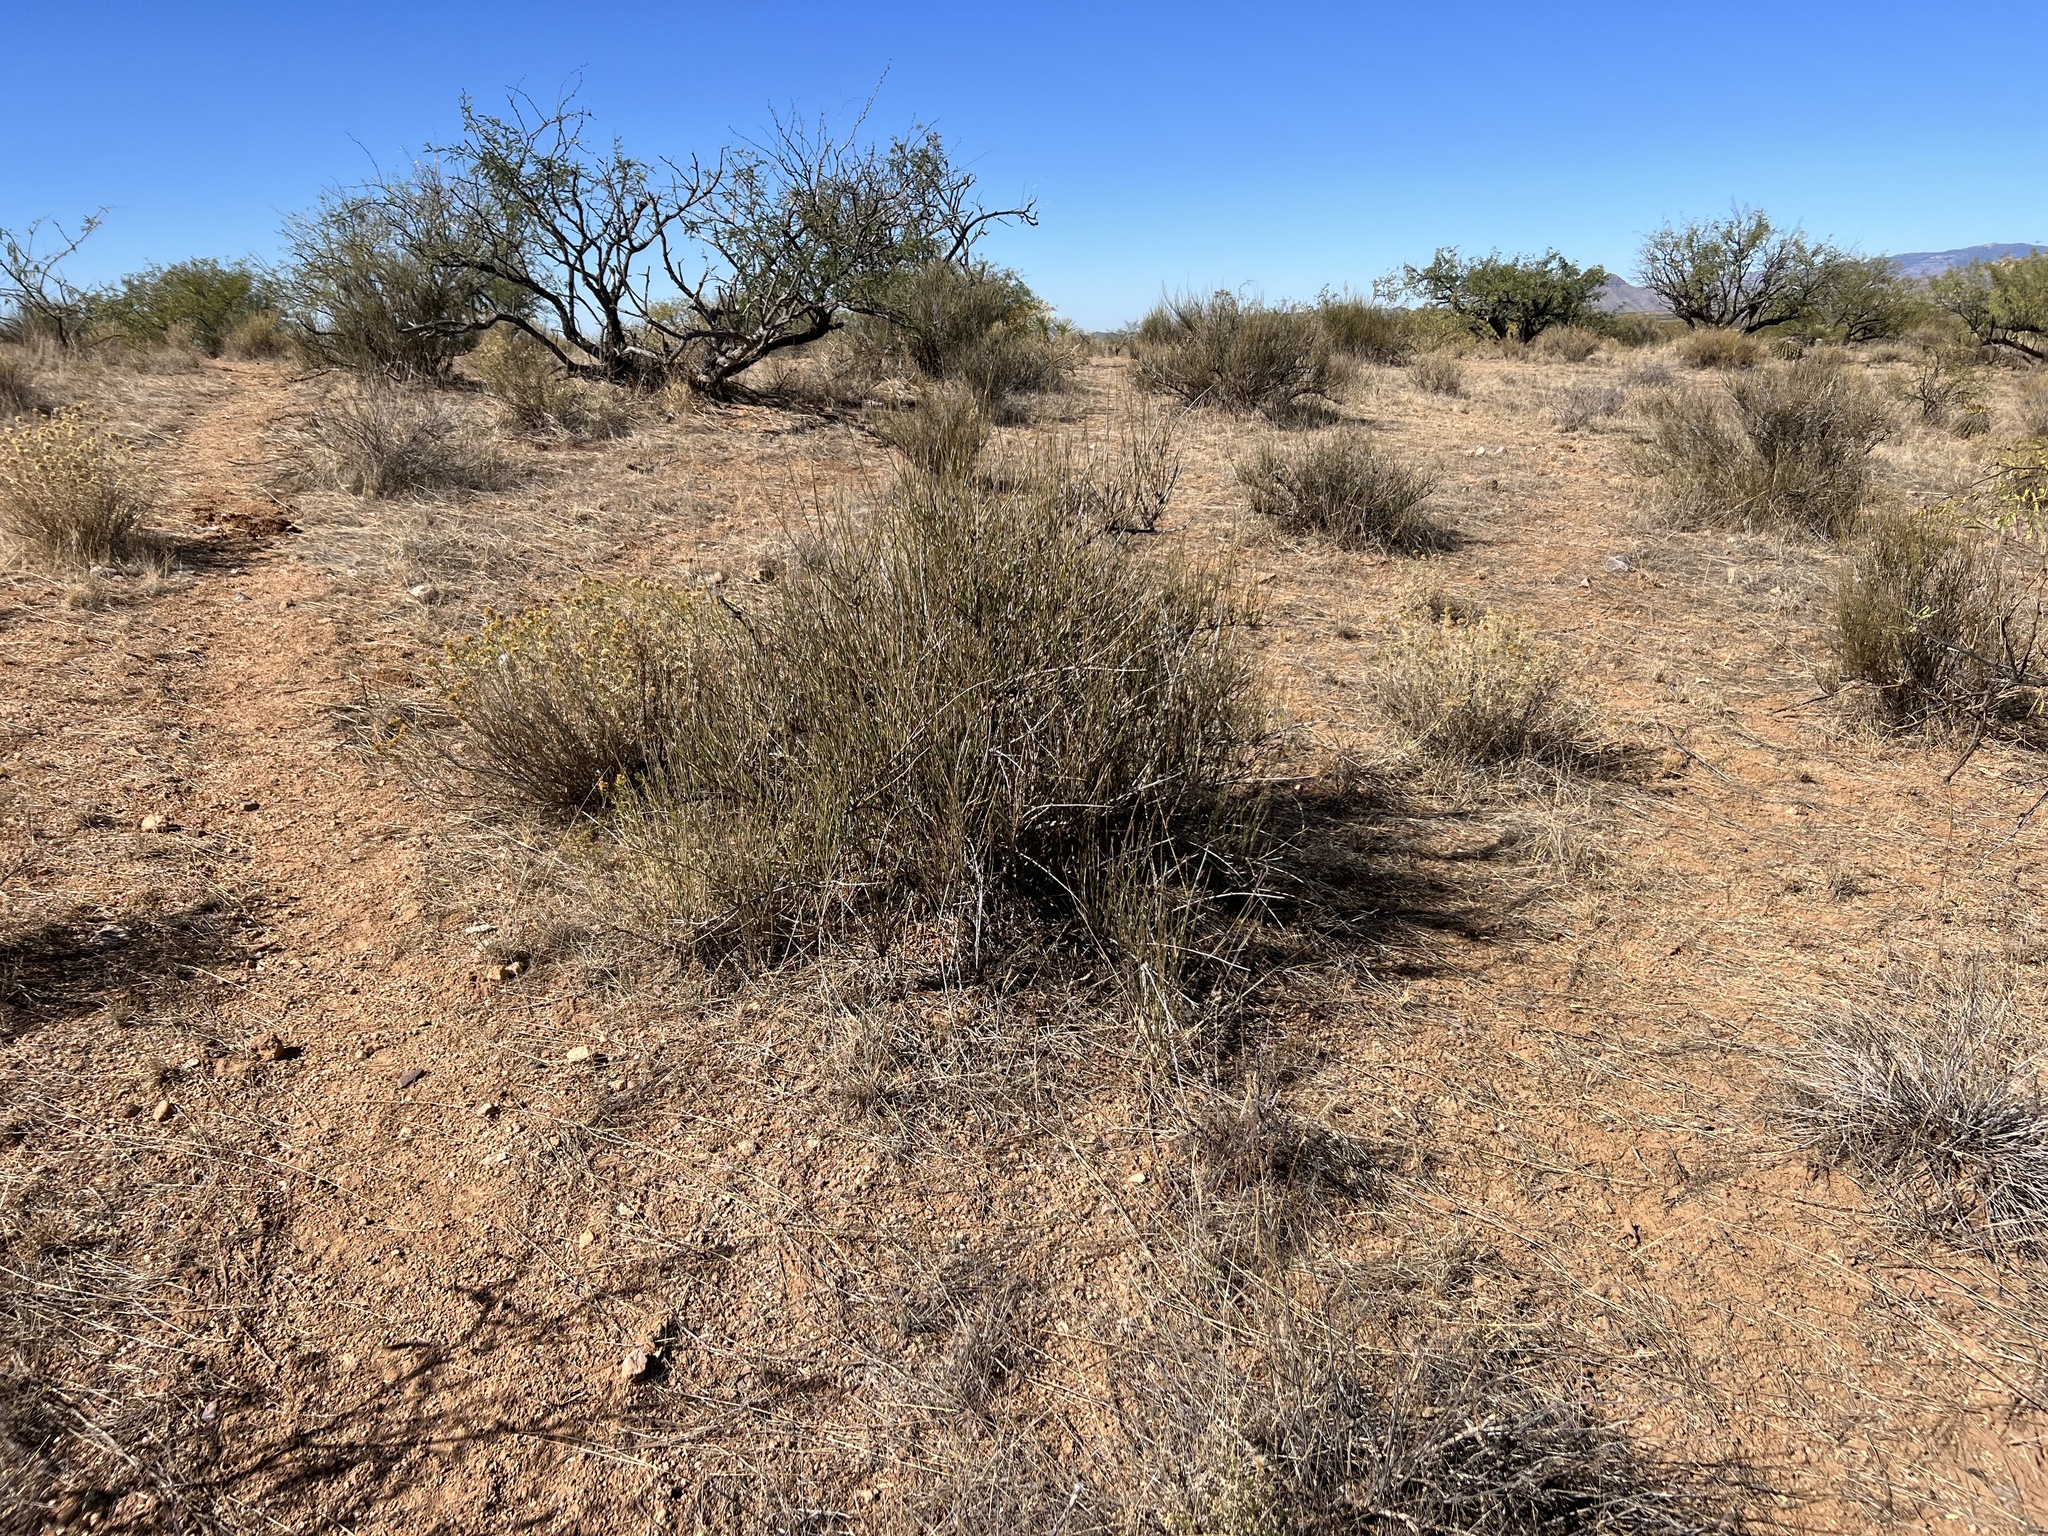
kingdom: Plantae
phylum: Tracheophyta
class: Gnetopsida
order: Ephedrales
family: Ephedraceae
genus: Ephedra
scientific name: Ephedra trifurca
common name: Mexican-tea
